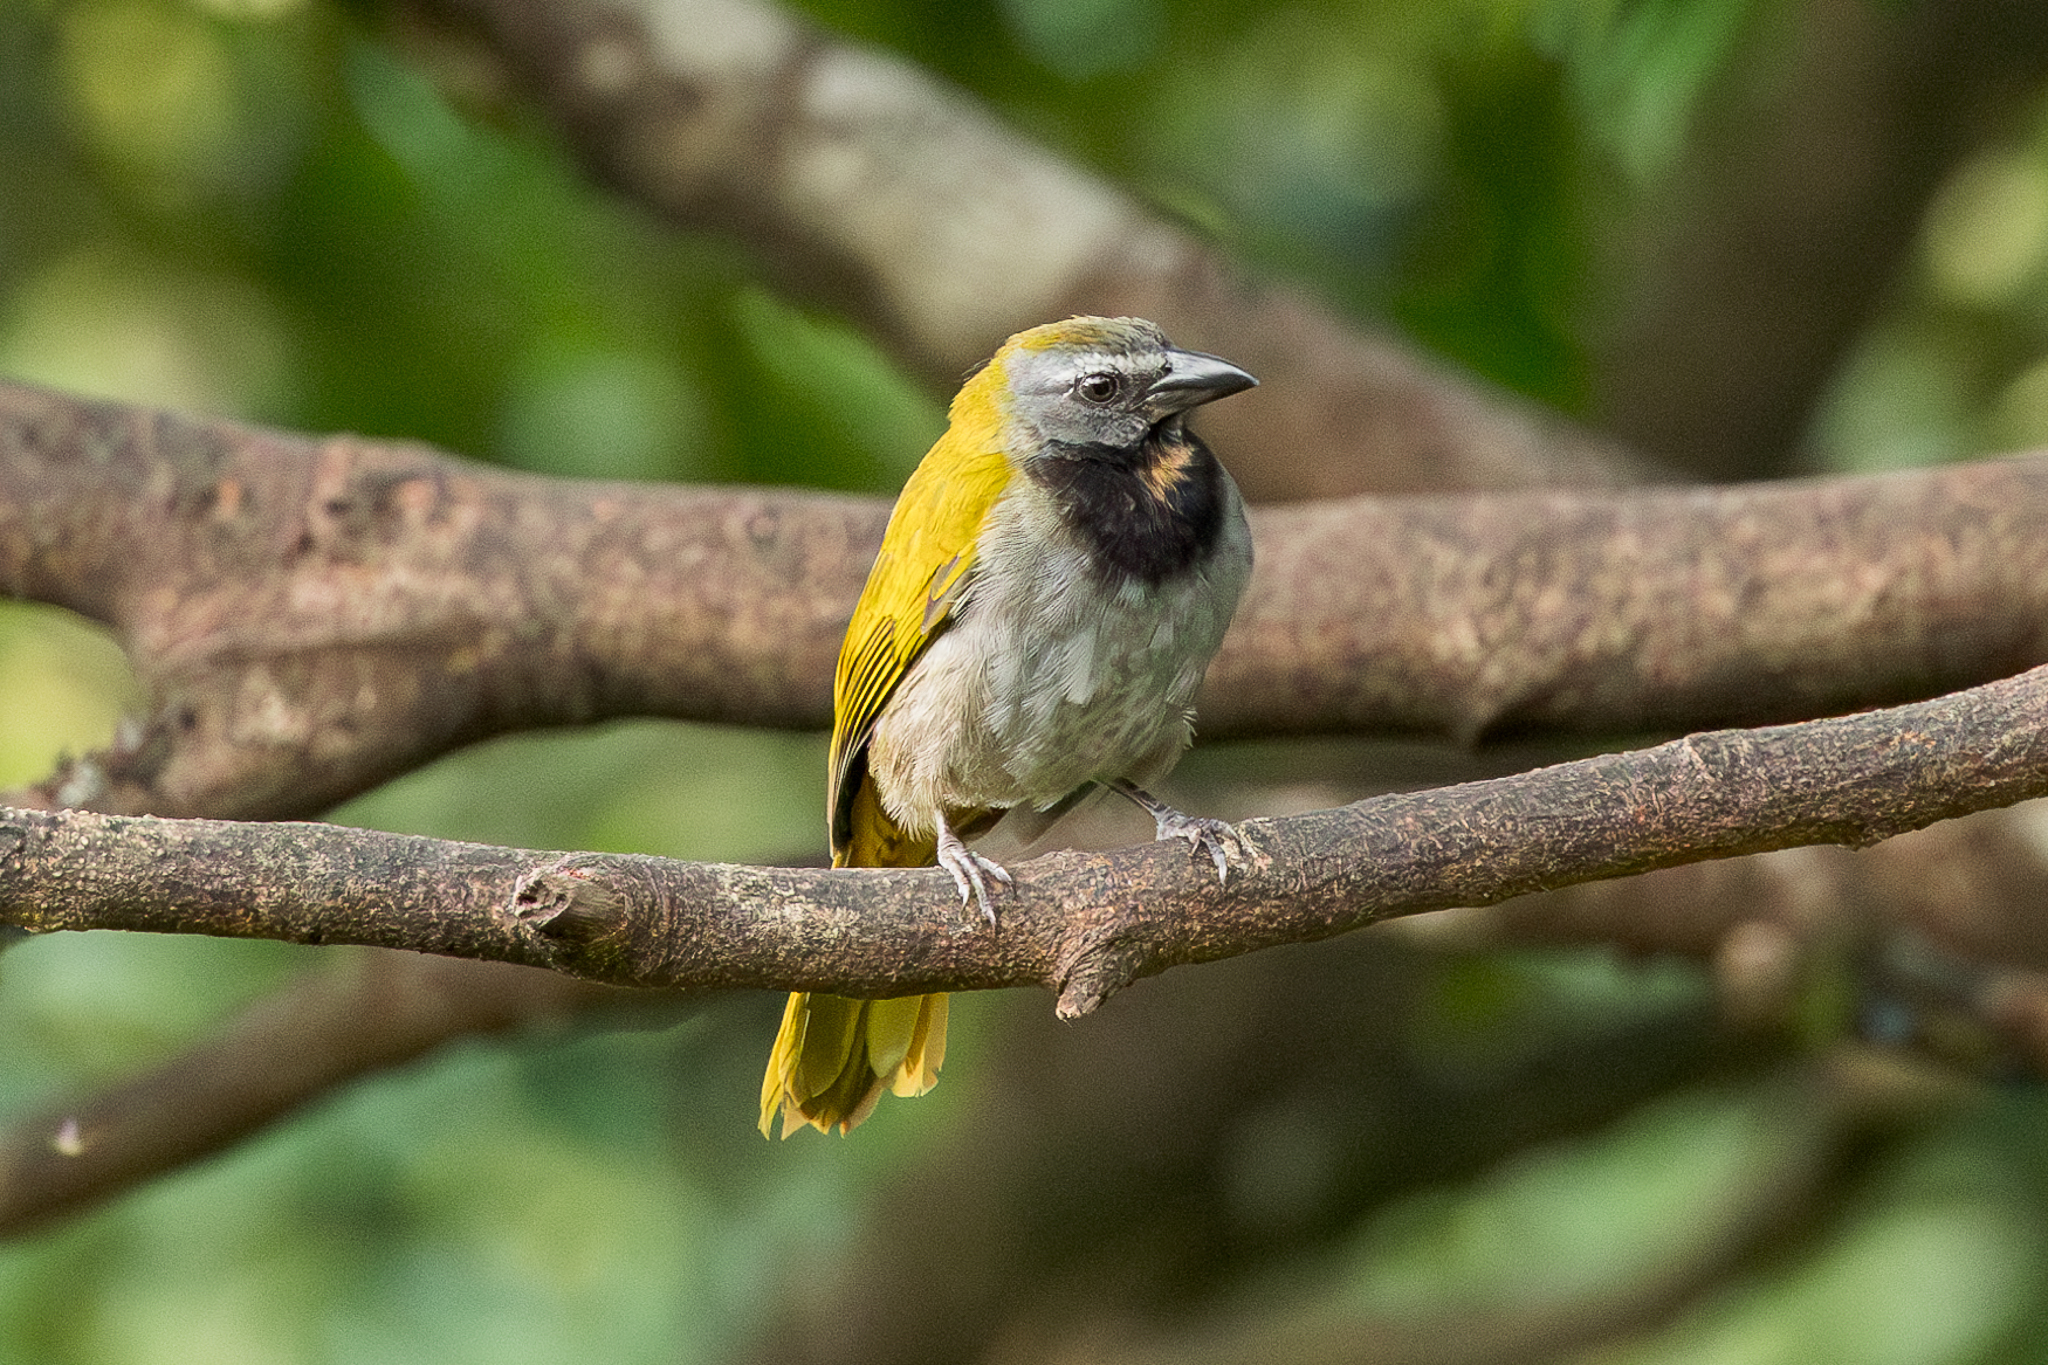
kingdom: Animalia
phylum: Chordata
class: Aves
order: Passeriformes
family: Thraupidae
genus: Saltator
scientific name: Saltator maximus
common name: Buff-throated saltator
